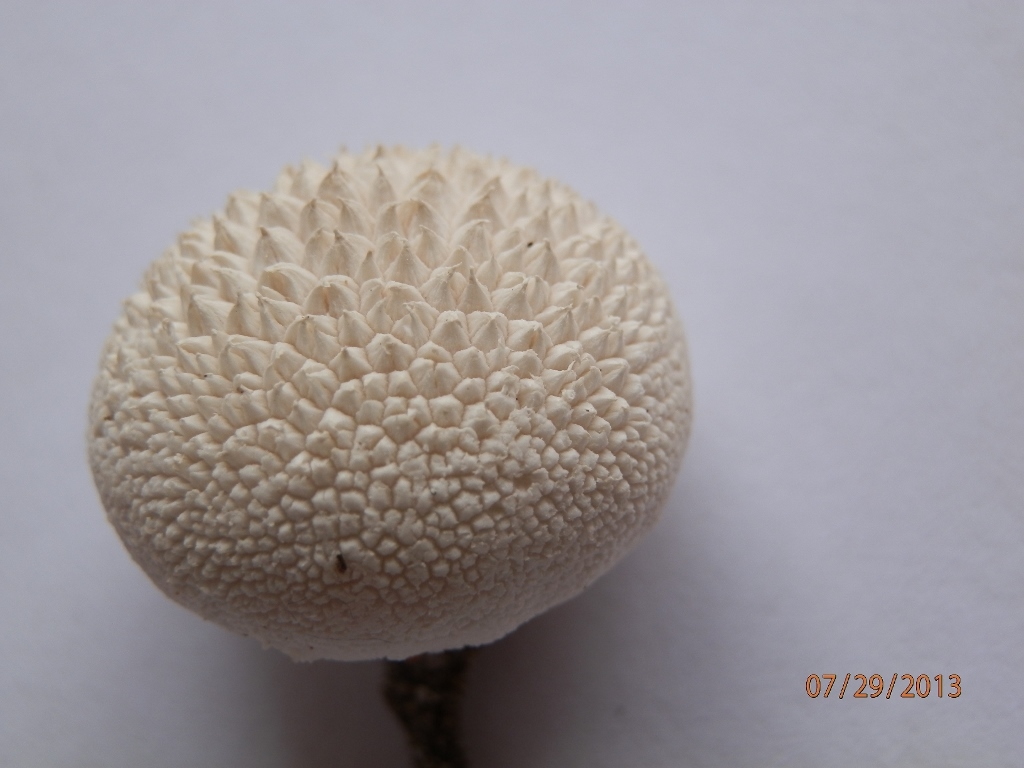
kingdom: Fungi
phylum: Basidiomycota
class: Agaricomycetes
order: Agaricales
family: Lycoperdaceae
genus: Lycoperdon
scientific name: Lycoperdon perlatum
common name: Common puffball
